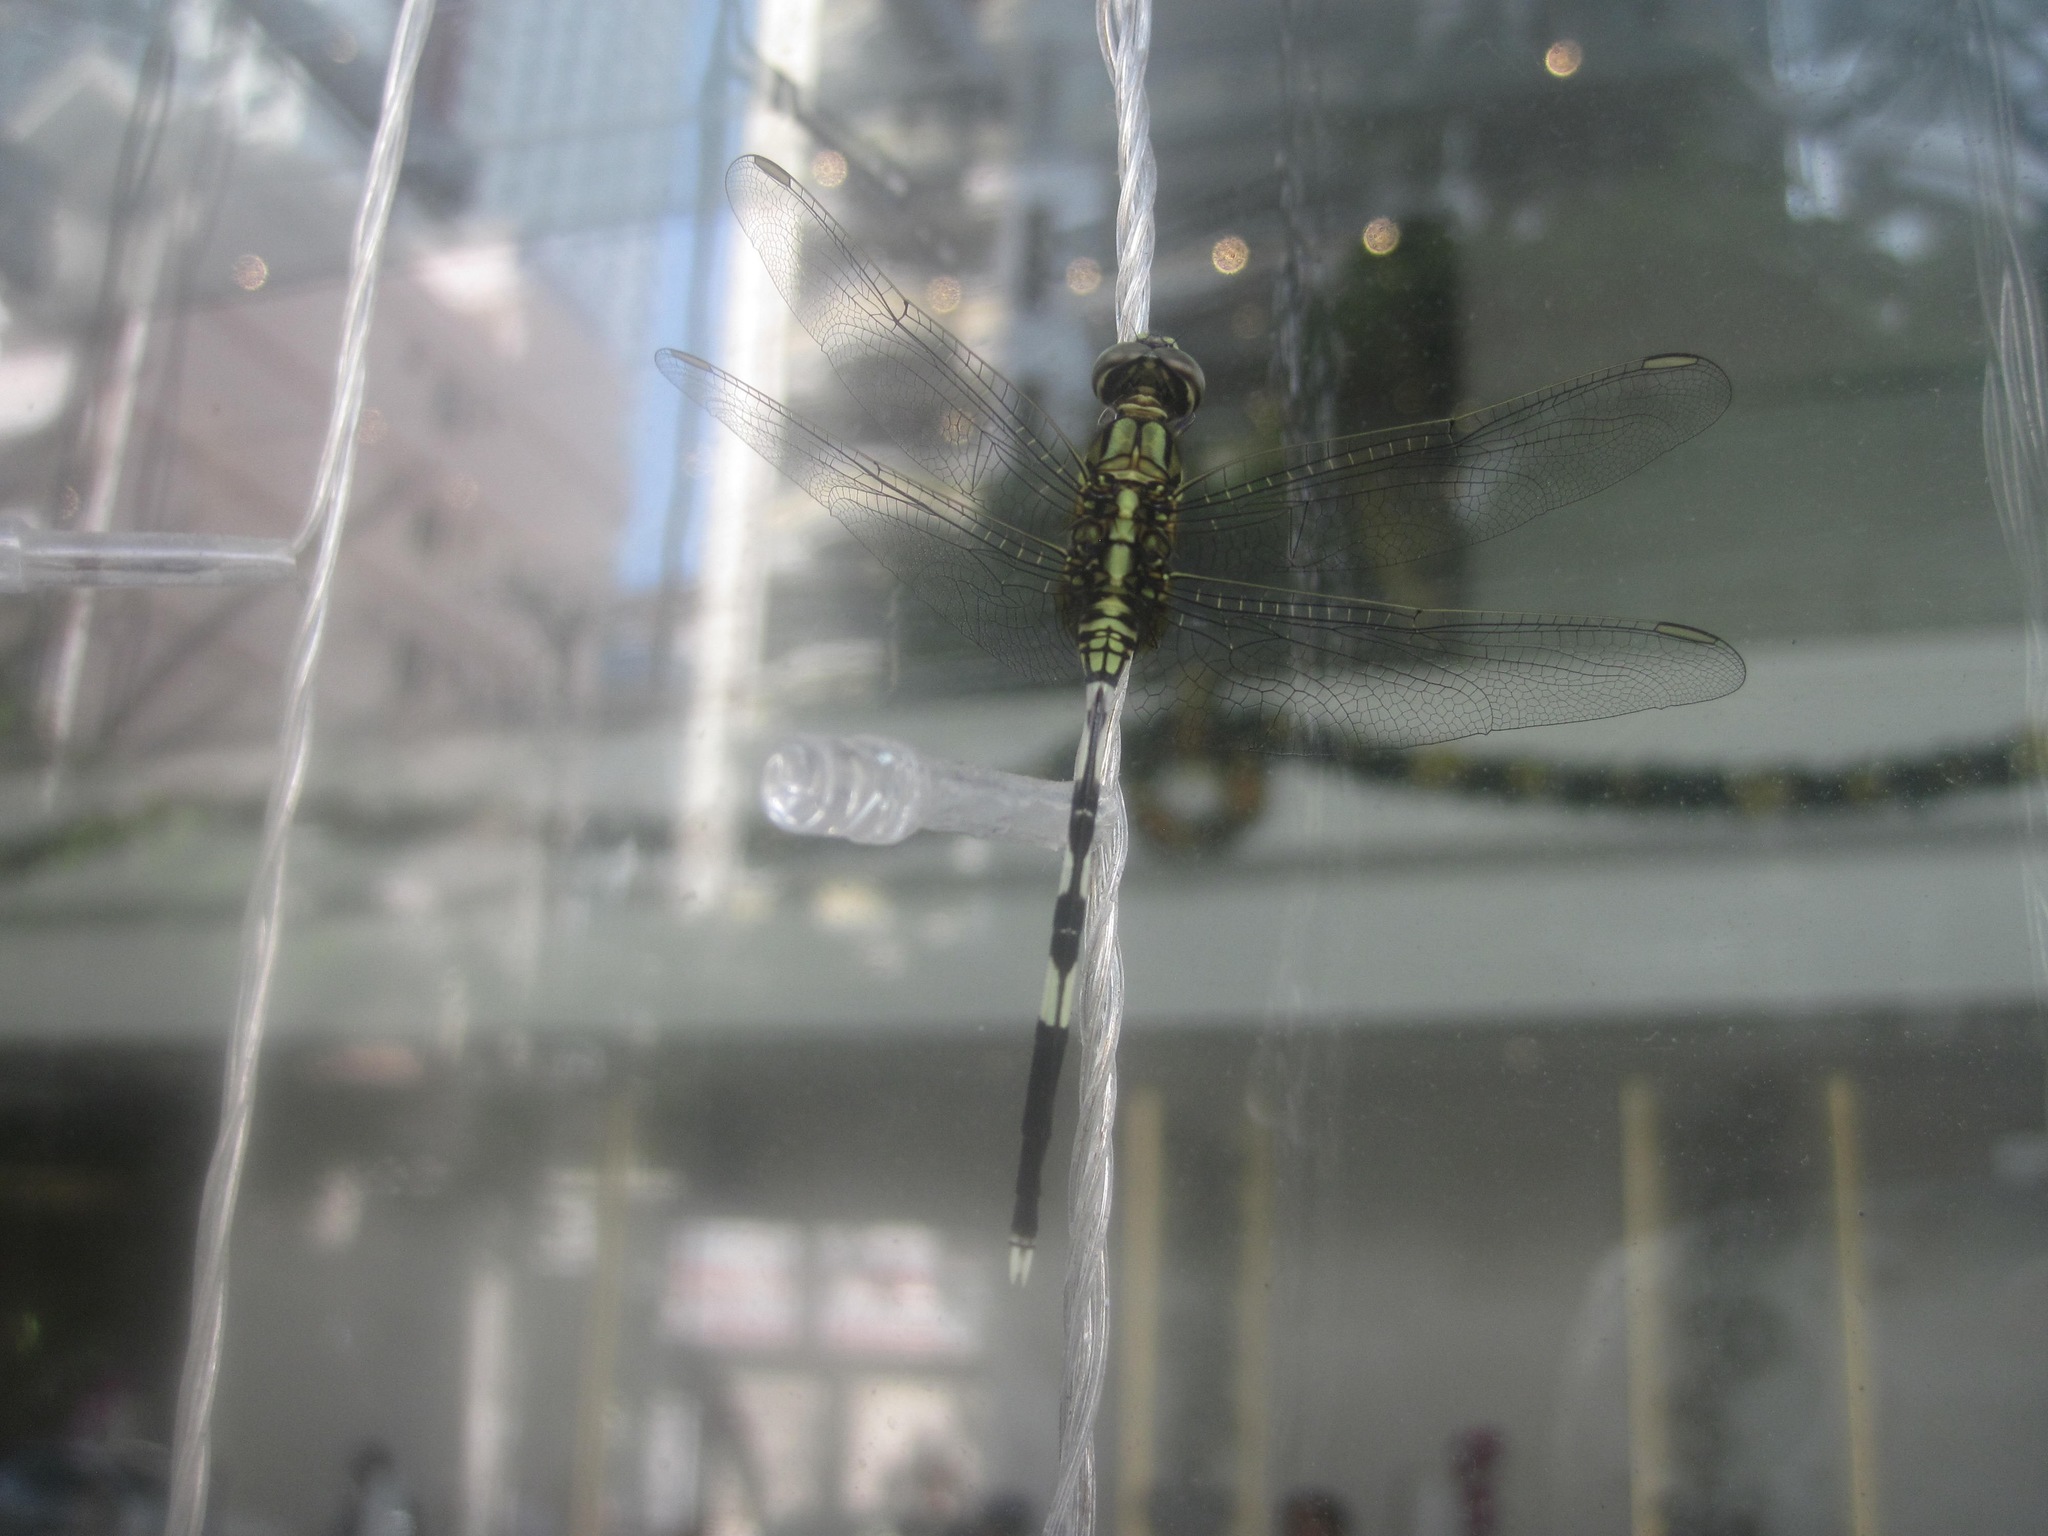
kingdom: Animalia
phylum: Arthropoda
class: Insecta
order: Odonata
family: Libellulidae
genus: Orthetrum
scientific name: Orthetrum sabina
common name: Slender skimmer
